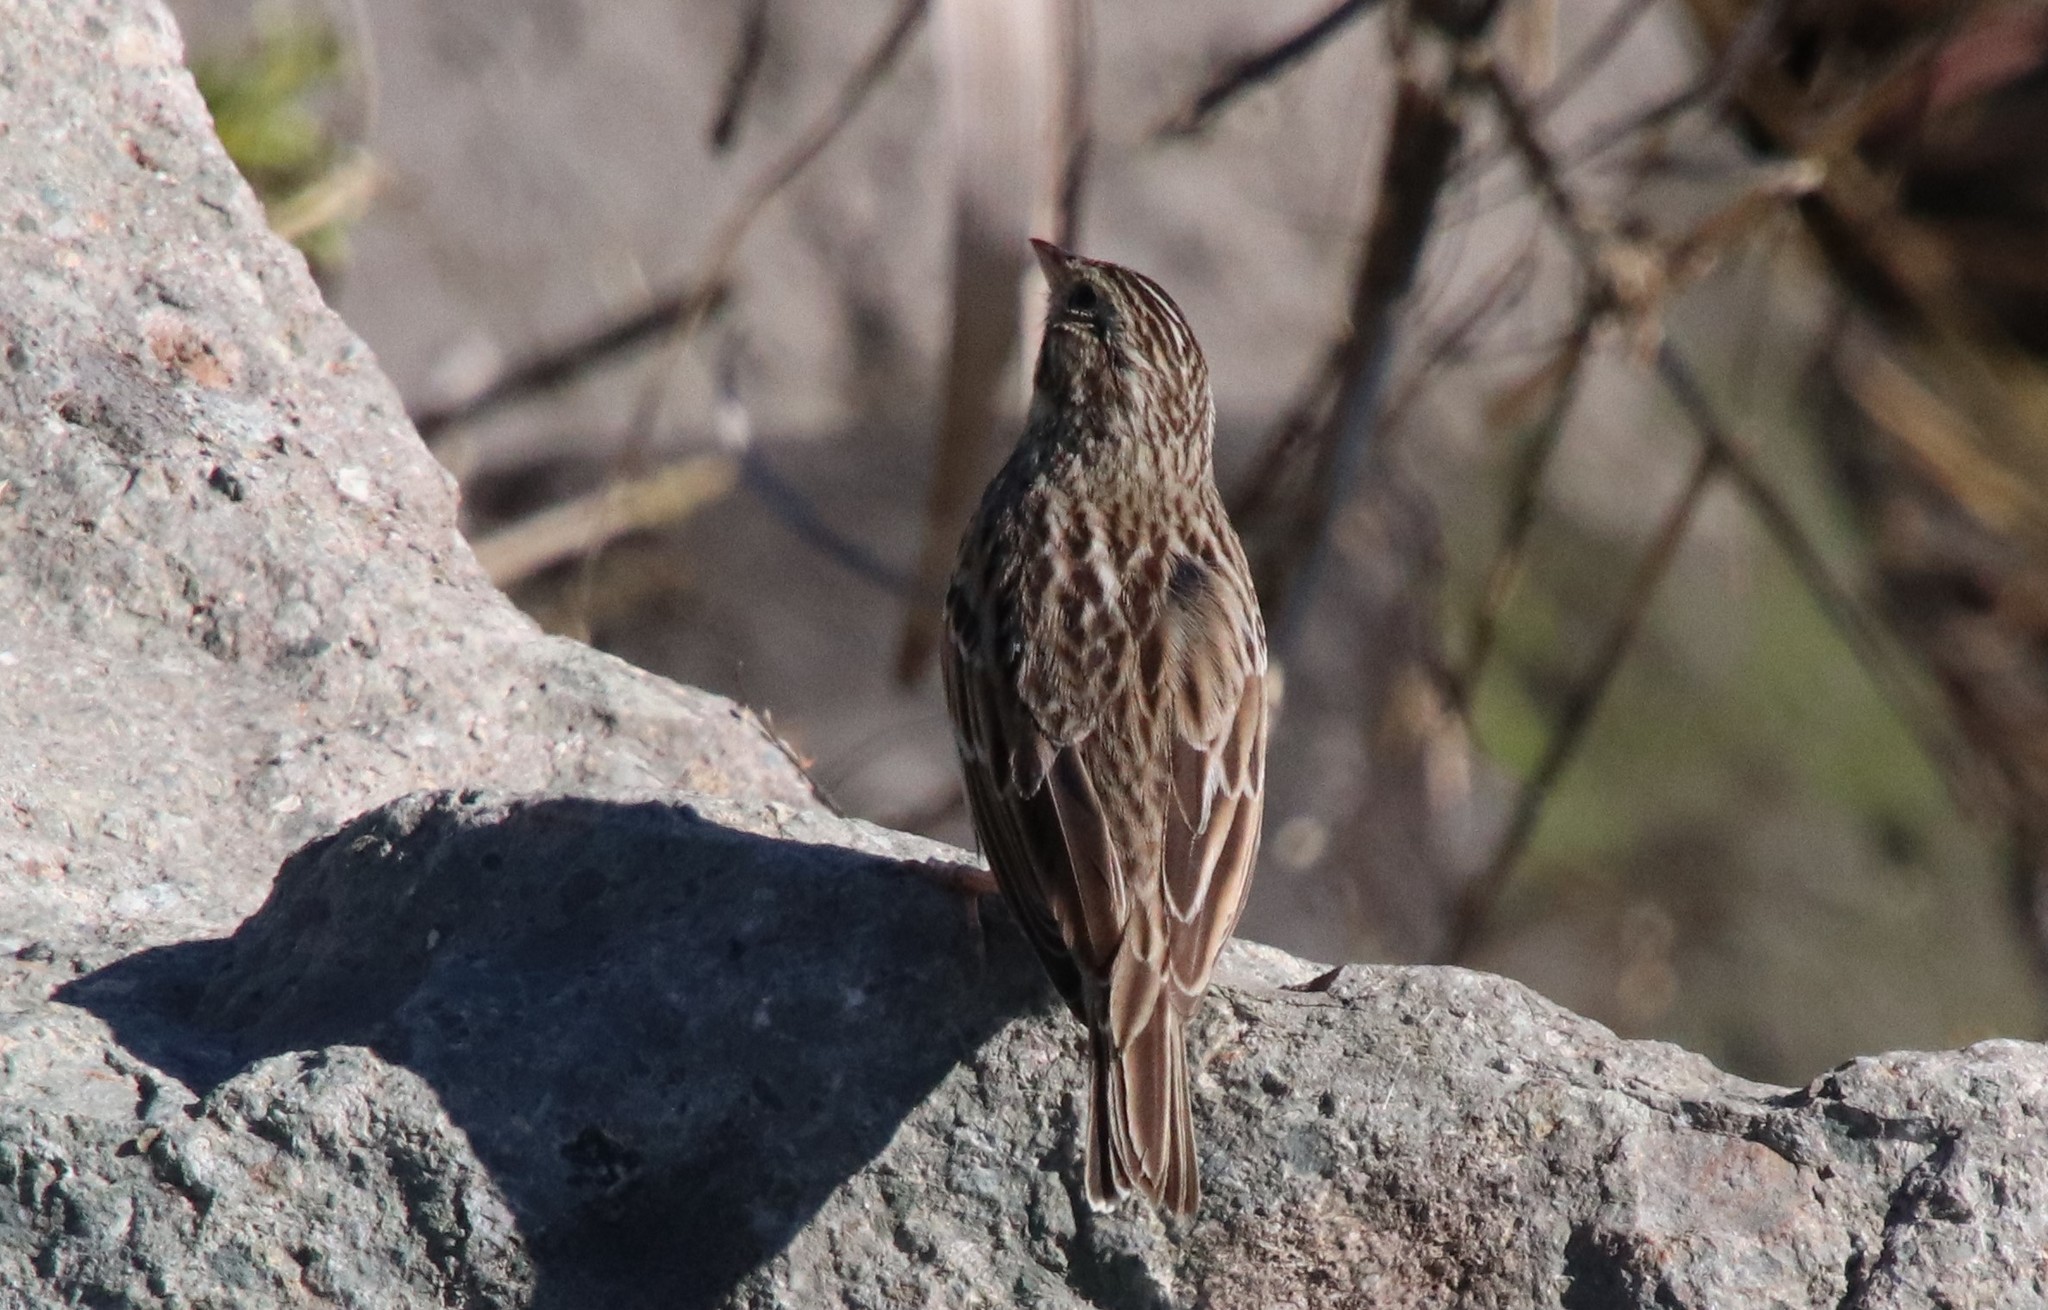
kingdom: Animalia
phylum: Chordata
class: Aves
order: Passeriformes
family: Passerellidae
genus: Passerculus
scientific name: Passerculus sandwichensis
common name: Savannah sparrow
